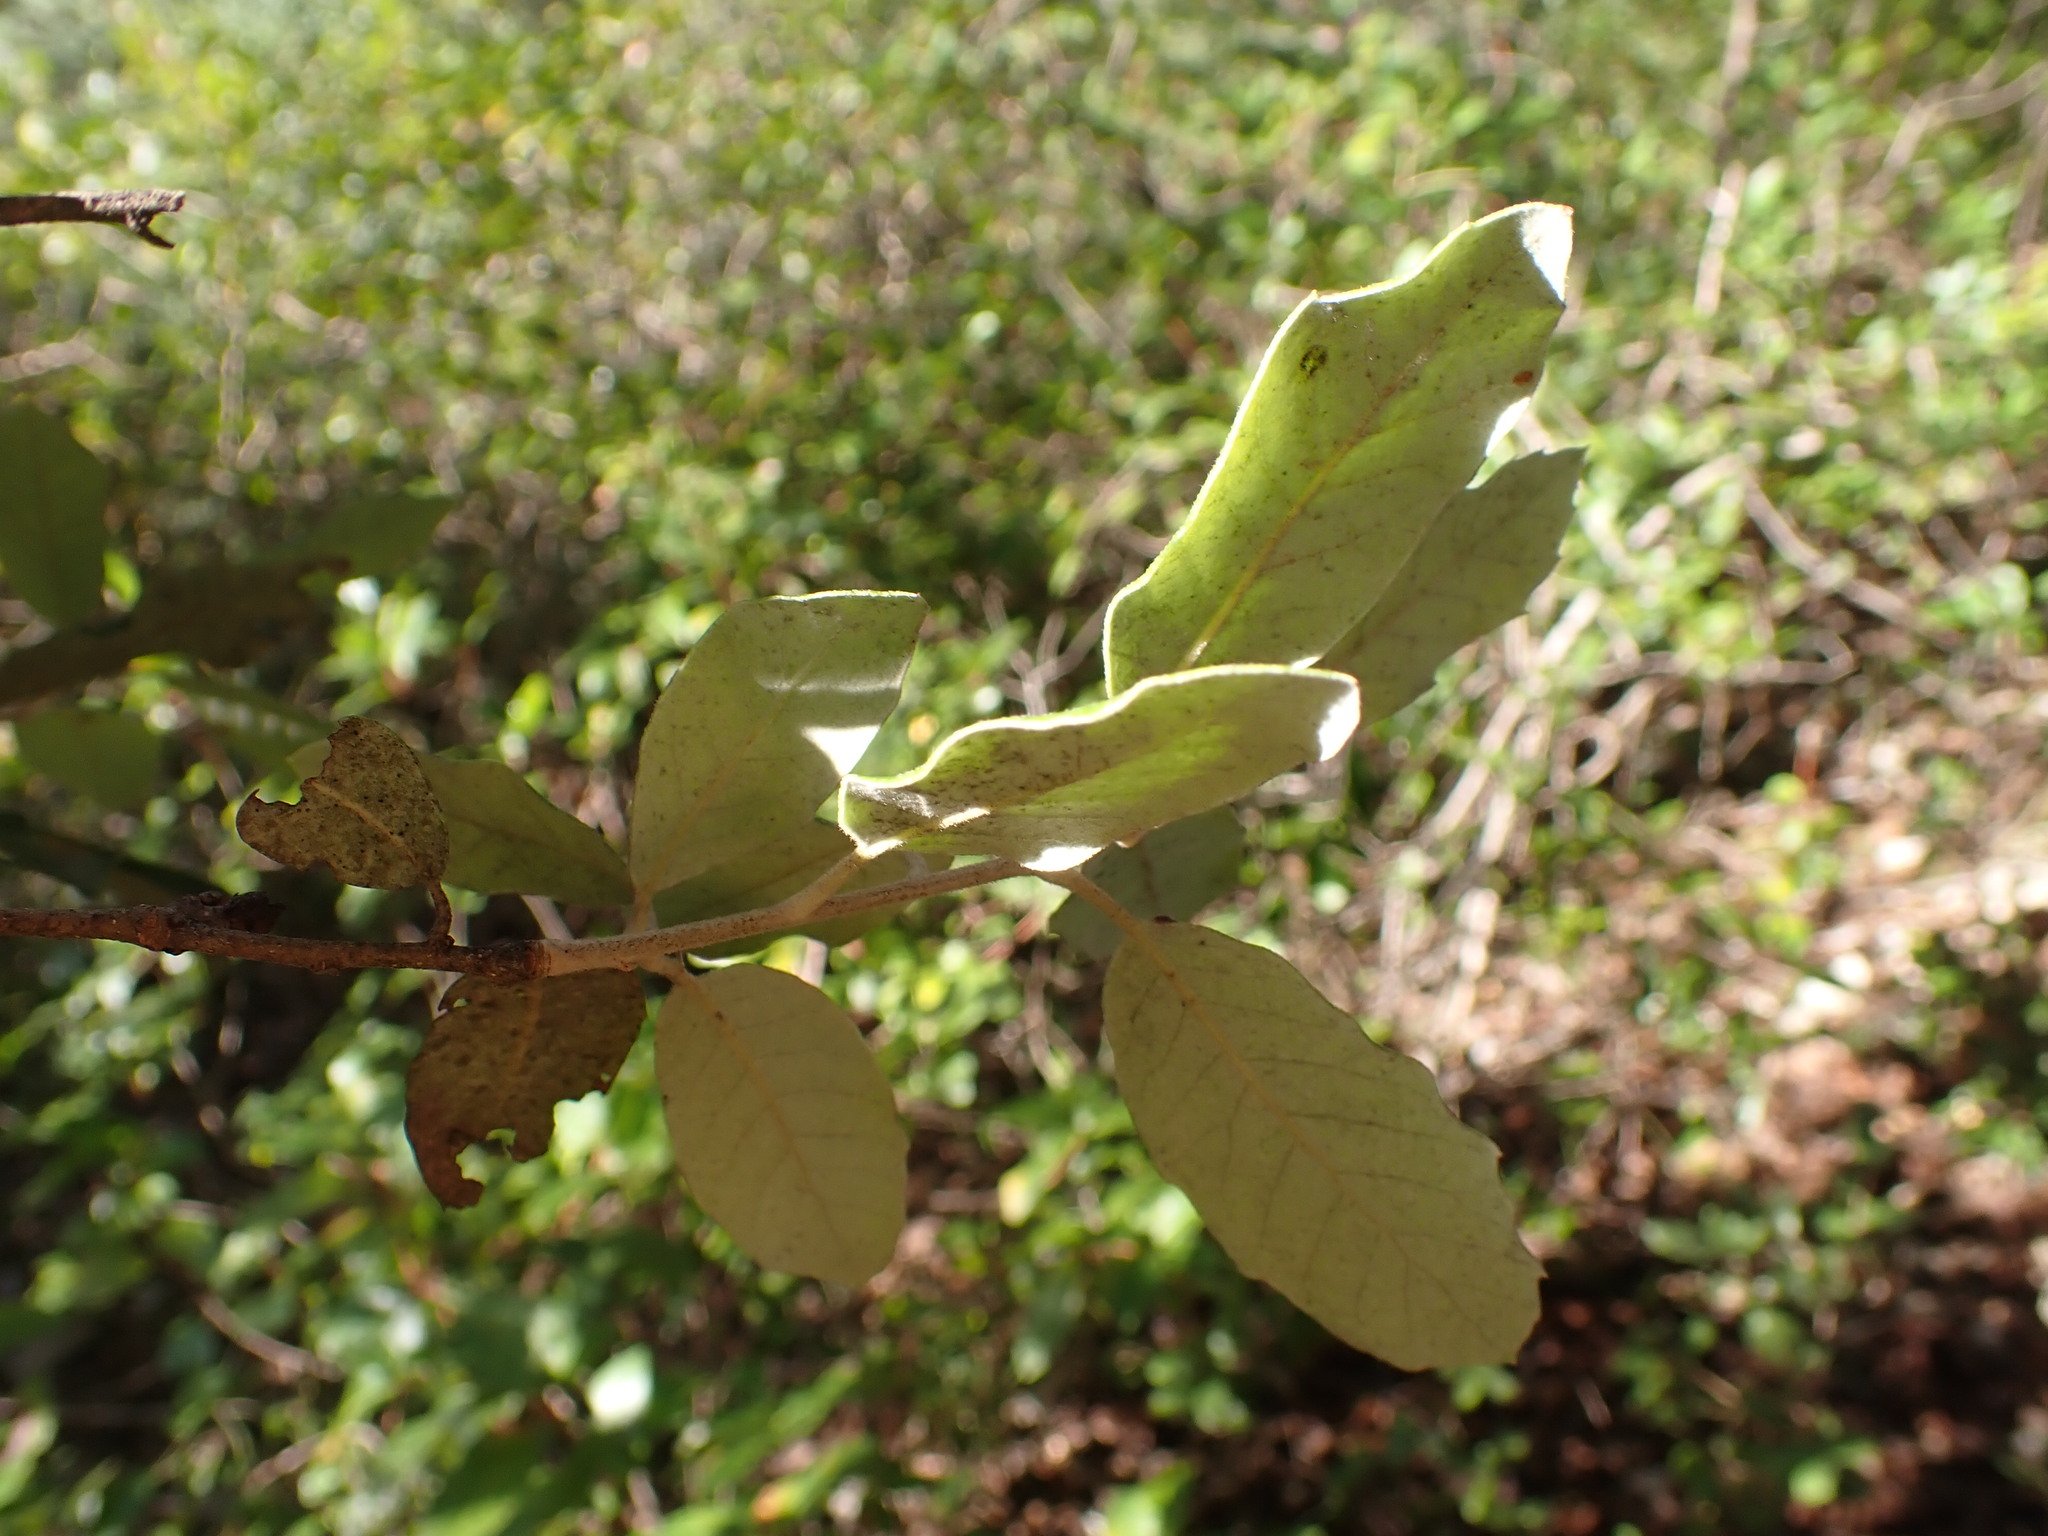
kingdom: Plantae
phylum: Tracheophyta
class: Magnoliopsida
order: Fagales
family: Fagaceae
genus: Quercus
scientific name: Quercus ilex
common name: Evergreen oak
